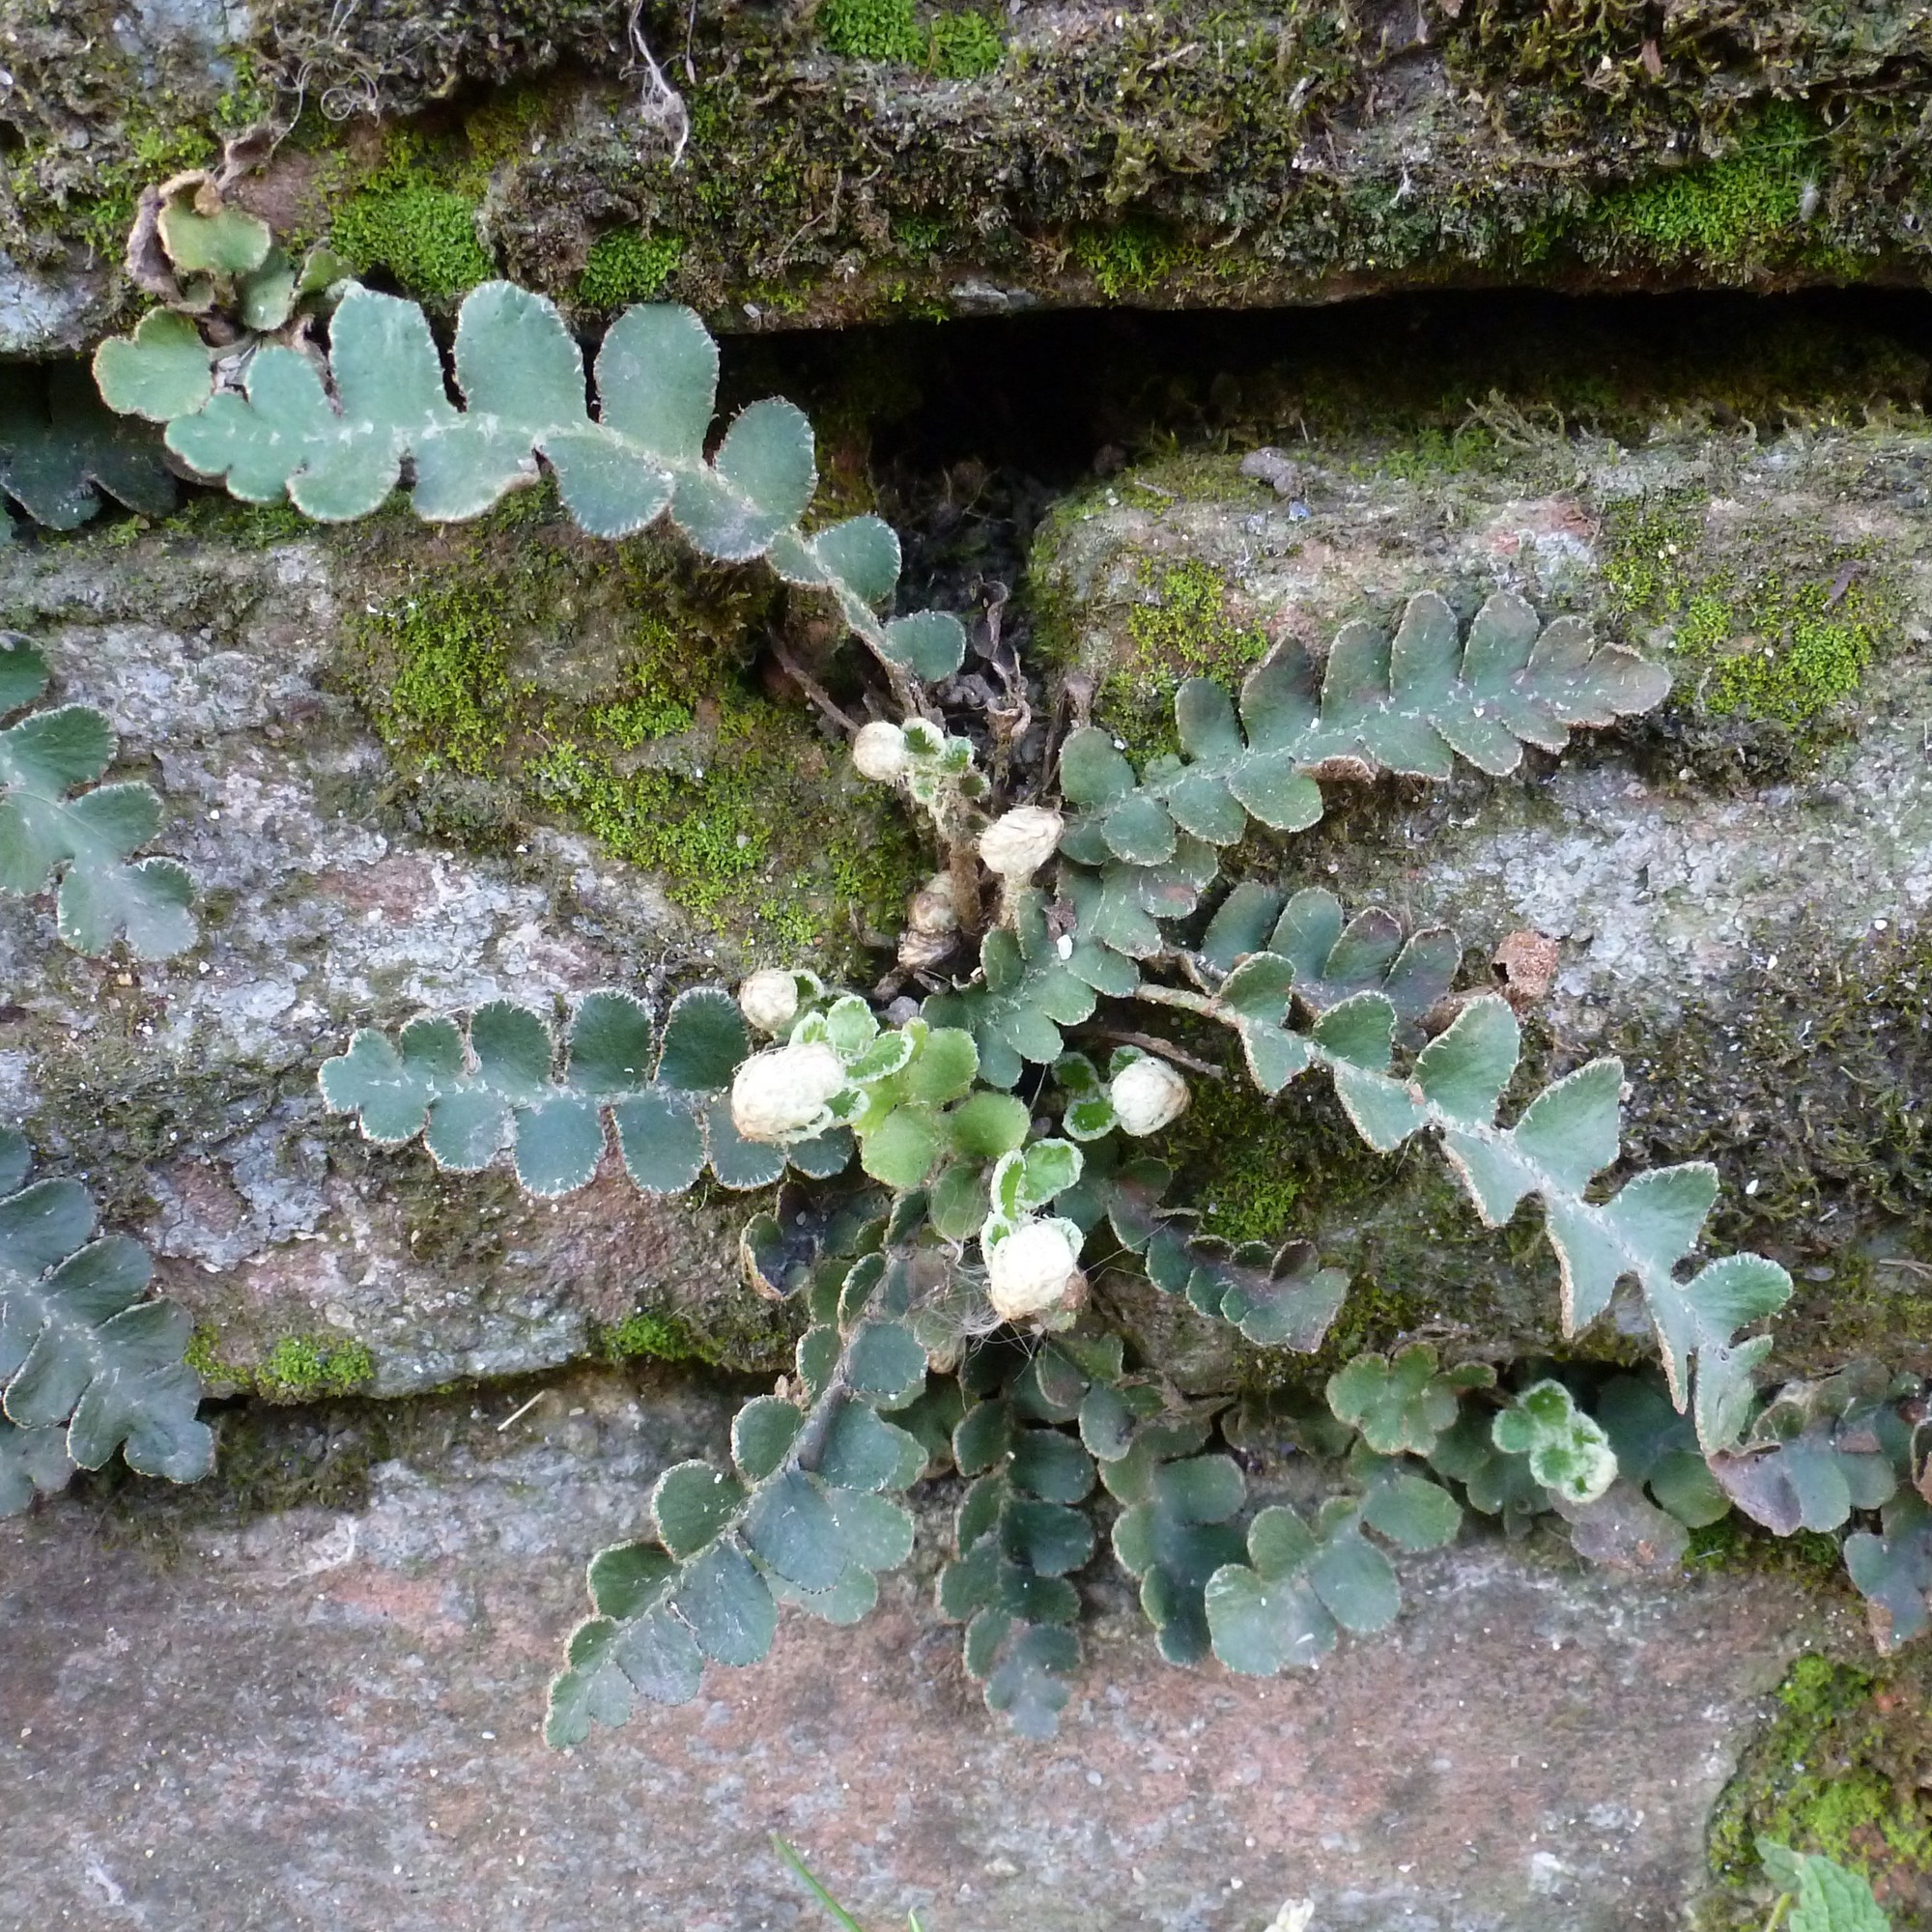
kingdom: Plantae
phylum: Tracheophyta
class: Polypodiopsida
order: Polypodiales
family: Aspleniaceae
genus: Asplenium
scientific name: Asplenium ceterach
